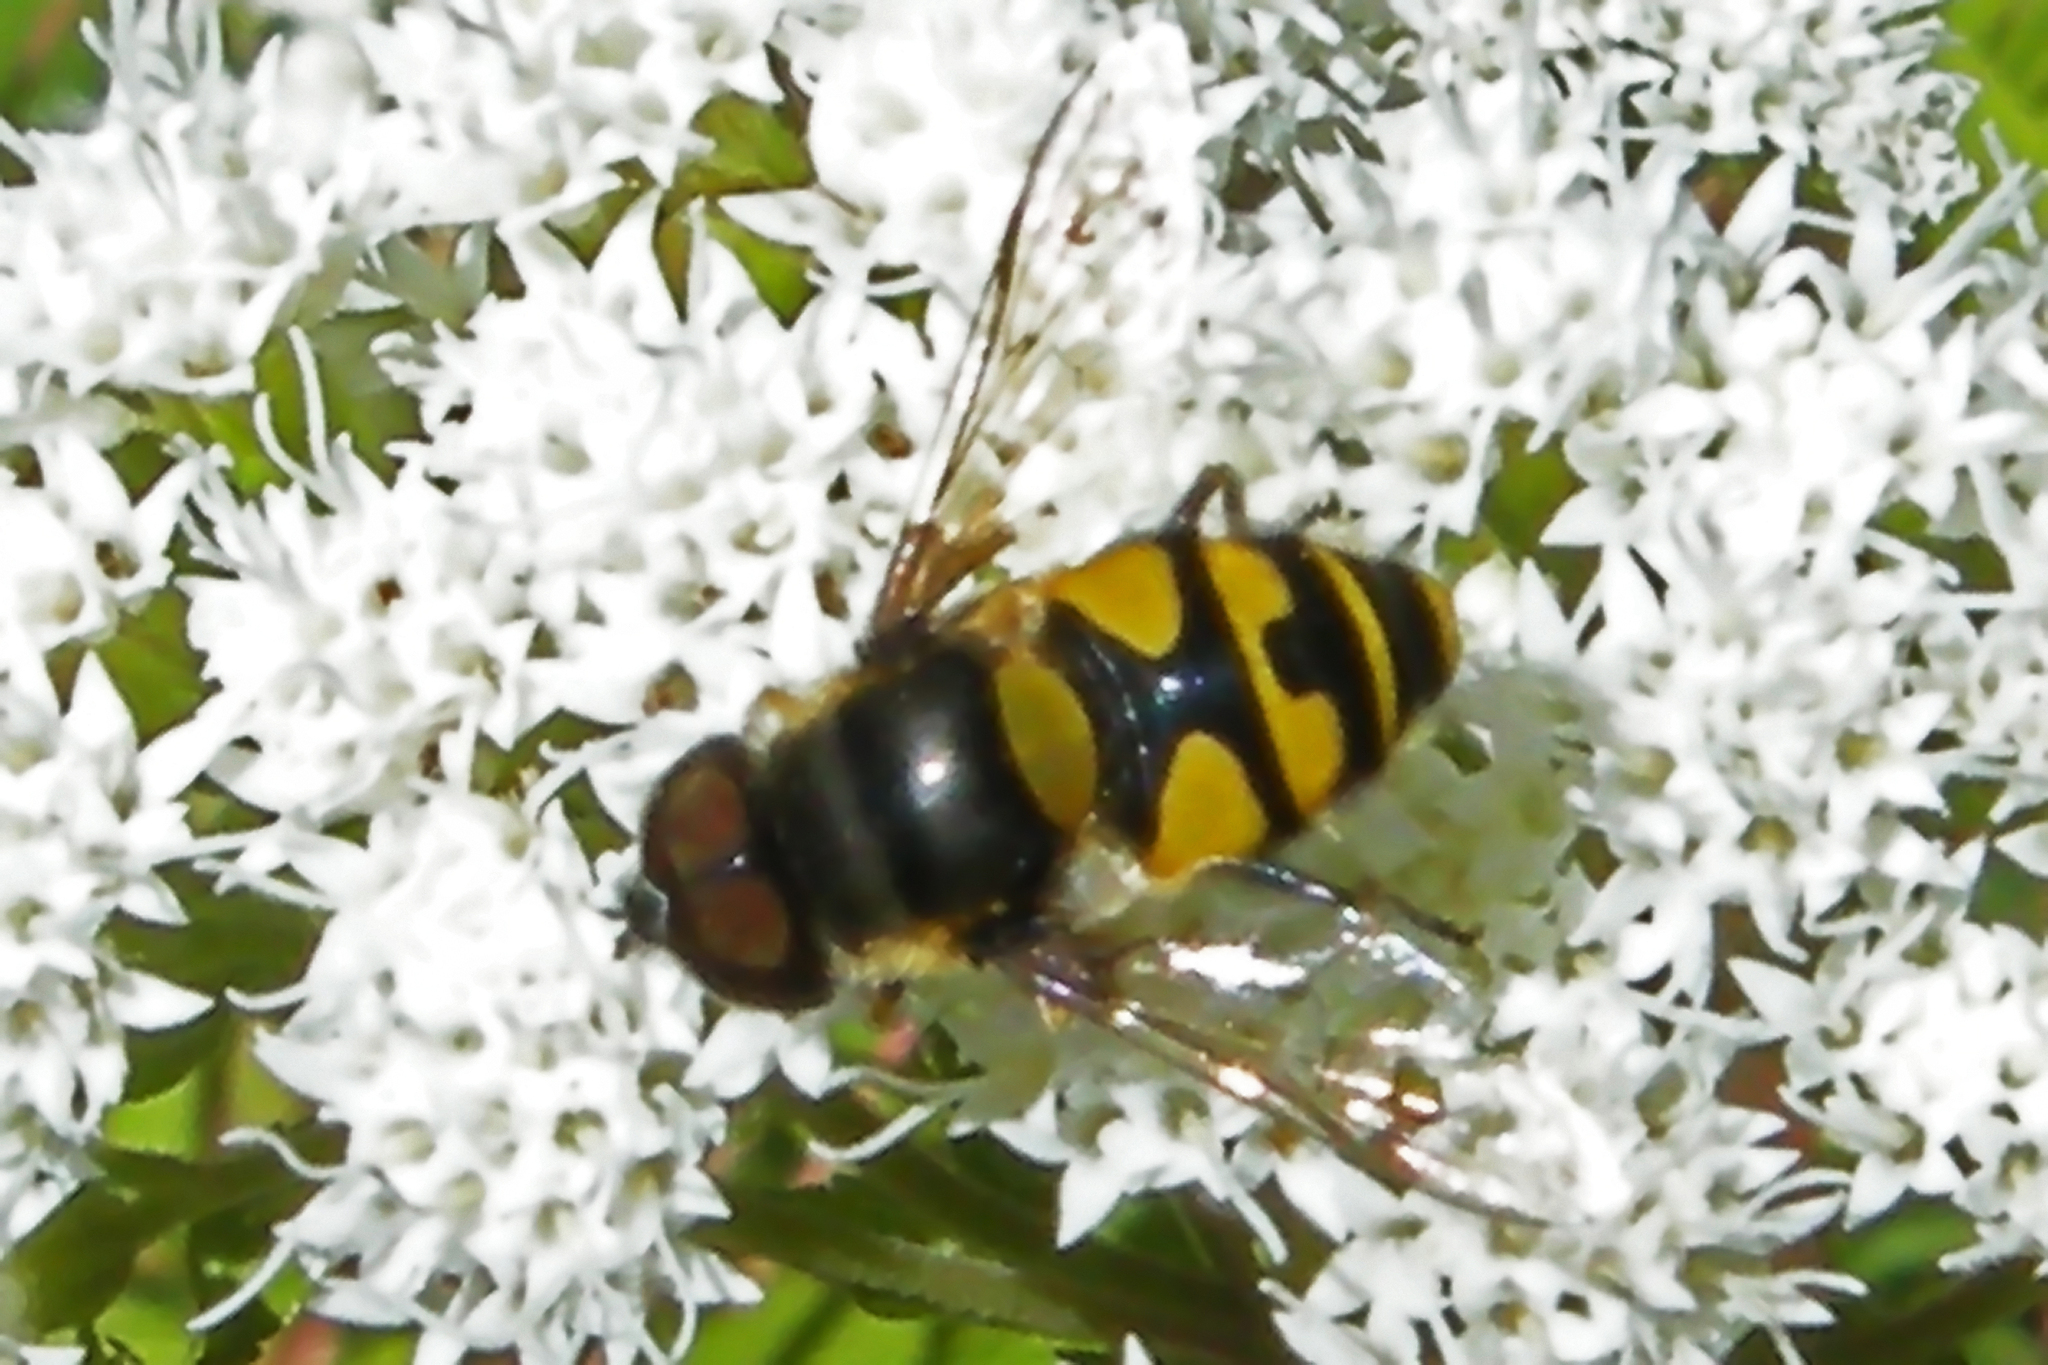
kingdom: Animalia
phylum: Arthropoda
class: Insecta
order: Diptera
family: Syrphidae
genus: Eristalis
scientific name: Eristalis transversa
